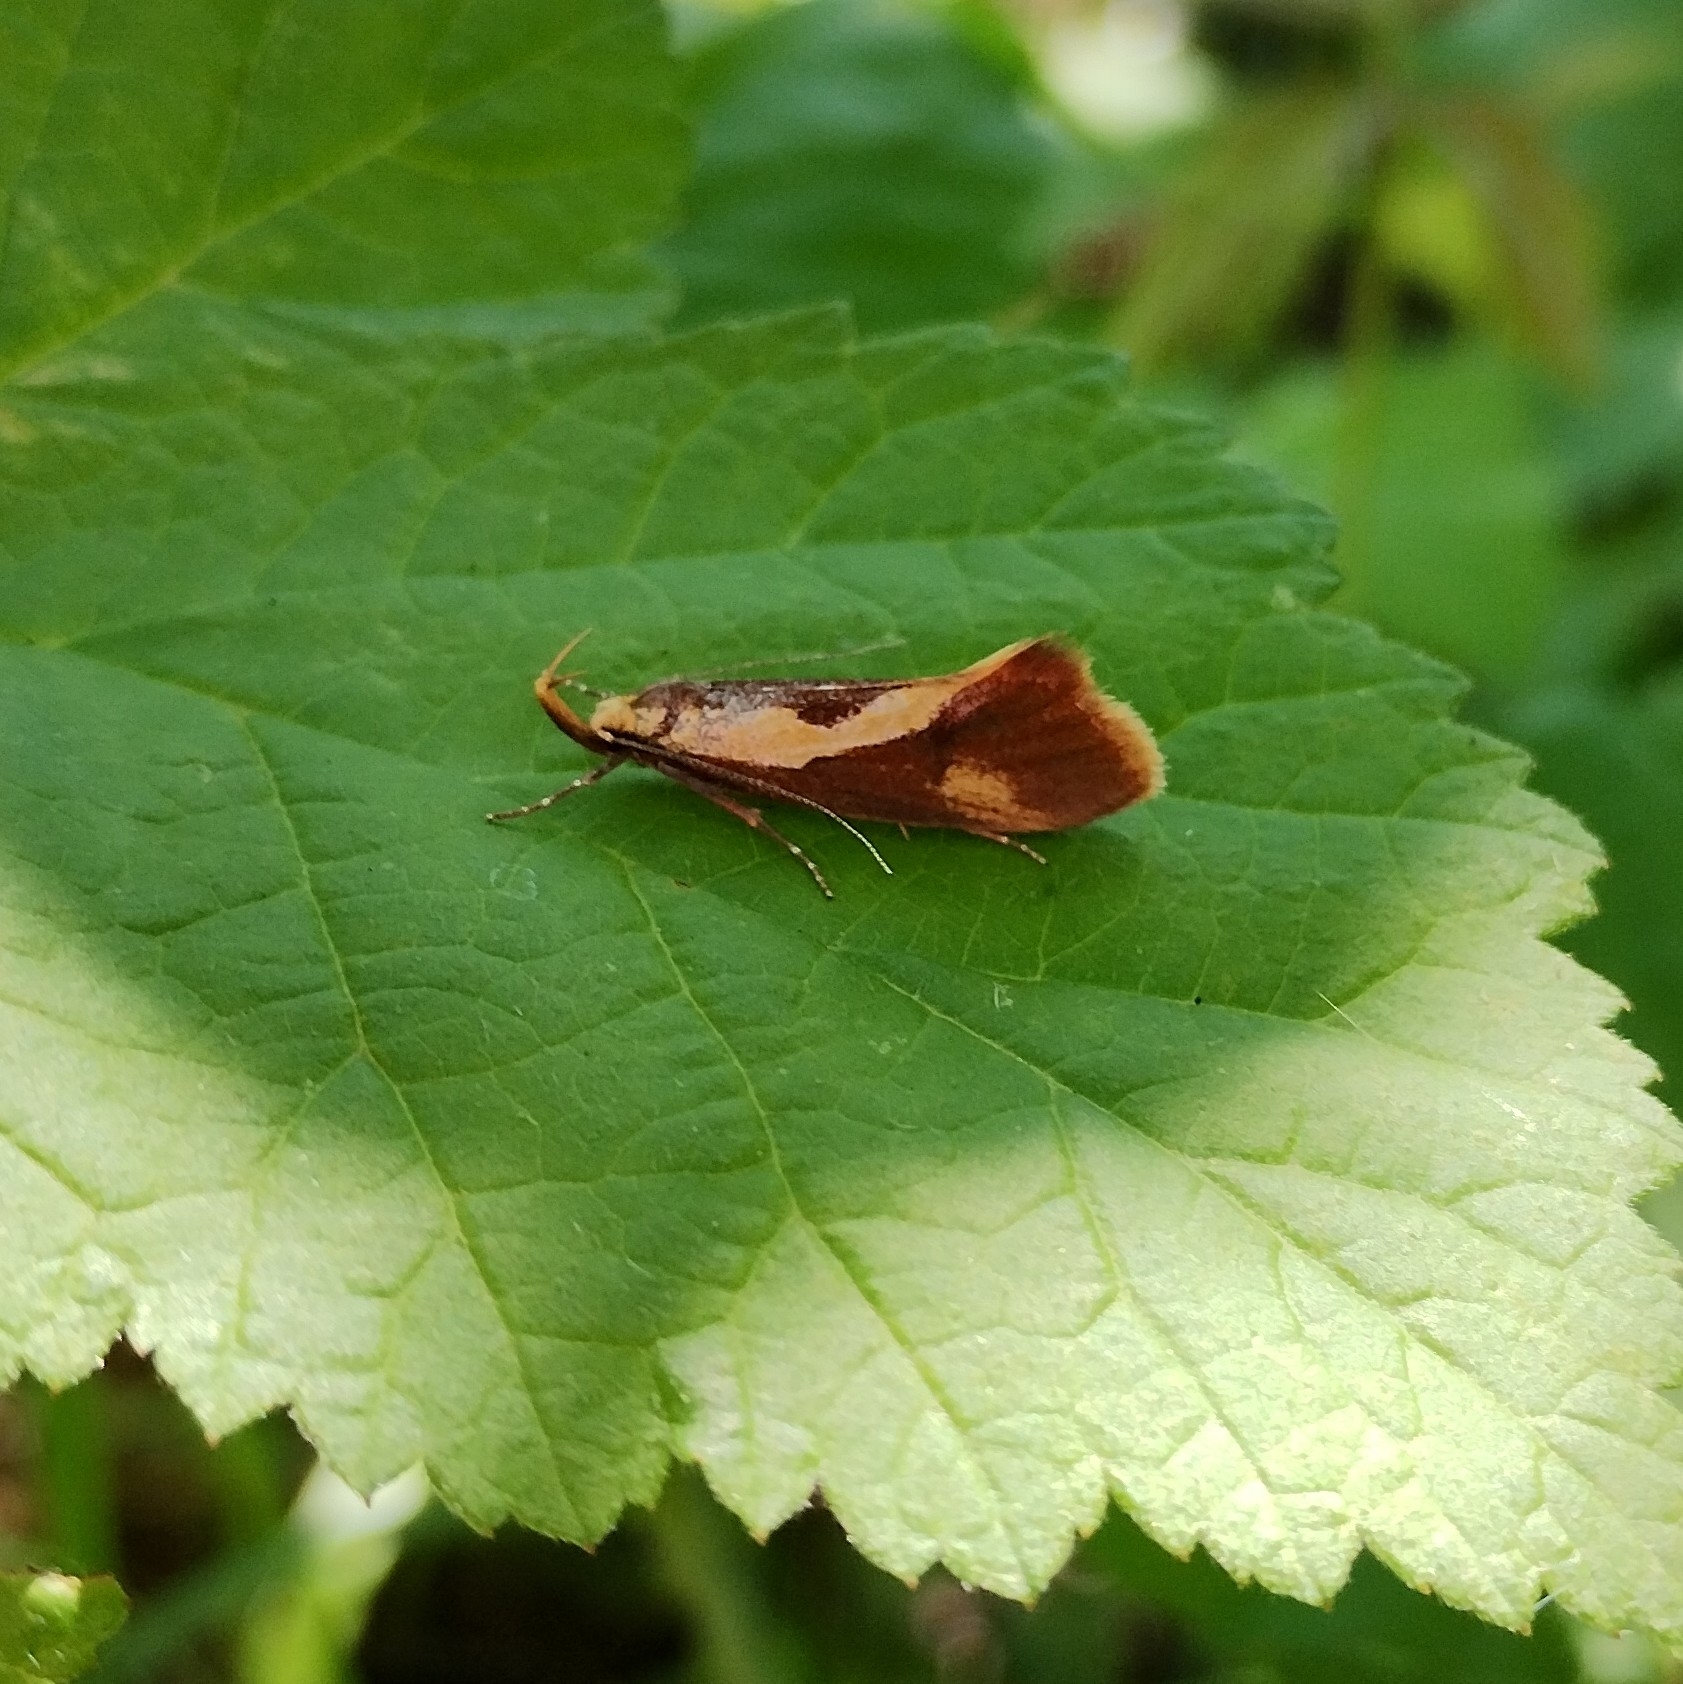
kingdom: Animalia
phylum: Arthropoda
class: Insecta
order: Lepidoptera
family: Oecophoridae
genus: Harpella
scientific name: Harpella forficella
